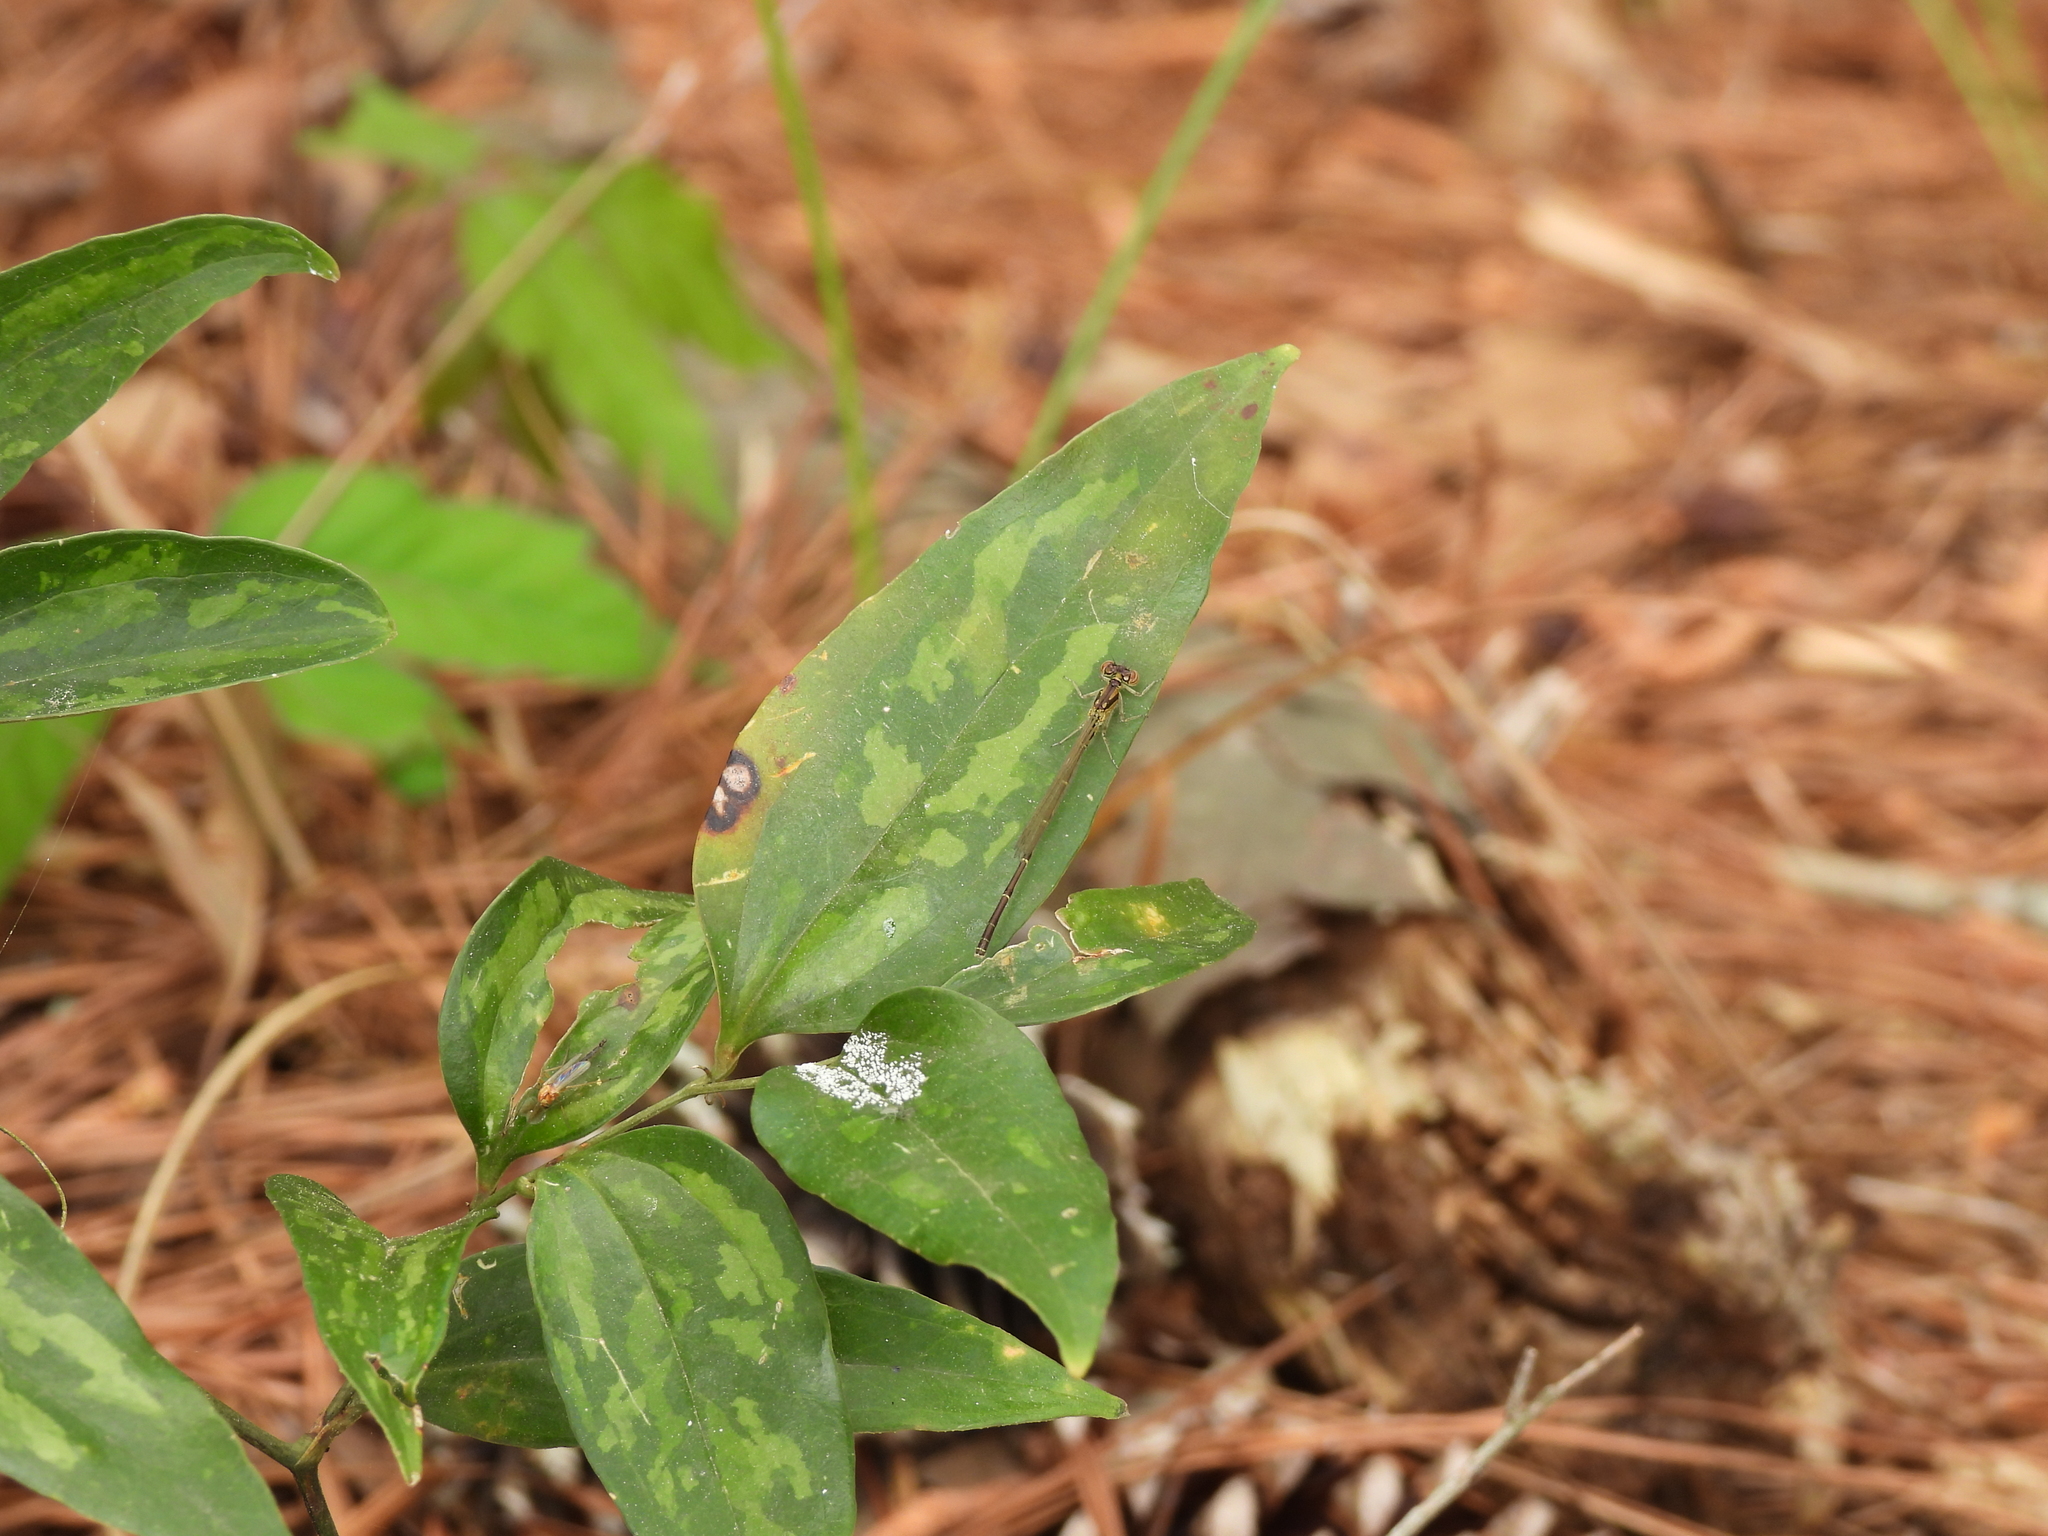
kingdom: Animalia
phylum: Arthropoda
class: Insecta
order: Odonata
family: Coenagrionidae
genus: Ischnura
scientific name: Ischnura posita
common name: Fragile forktail
